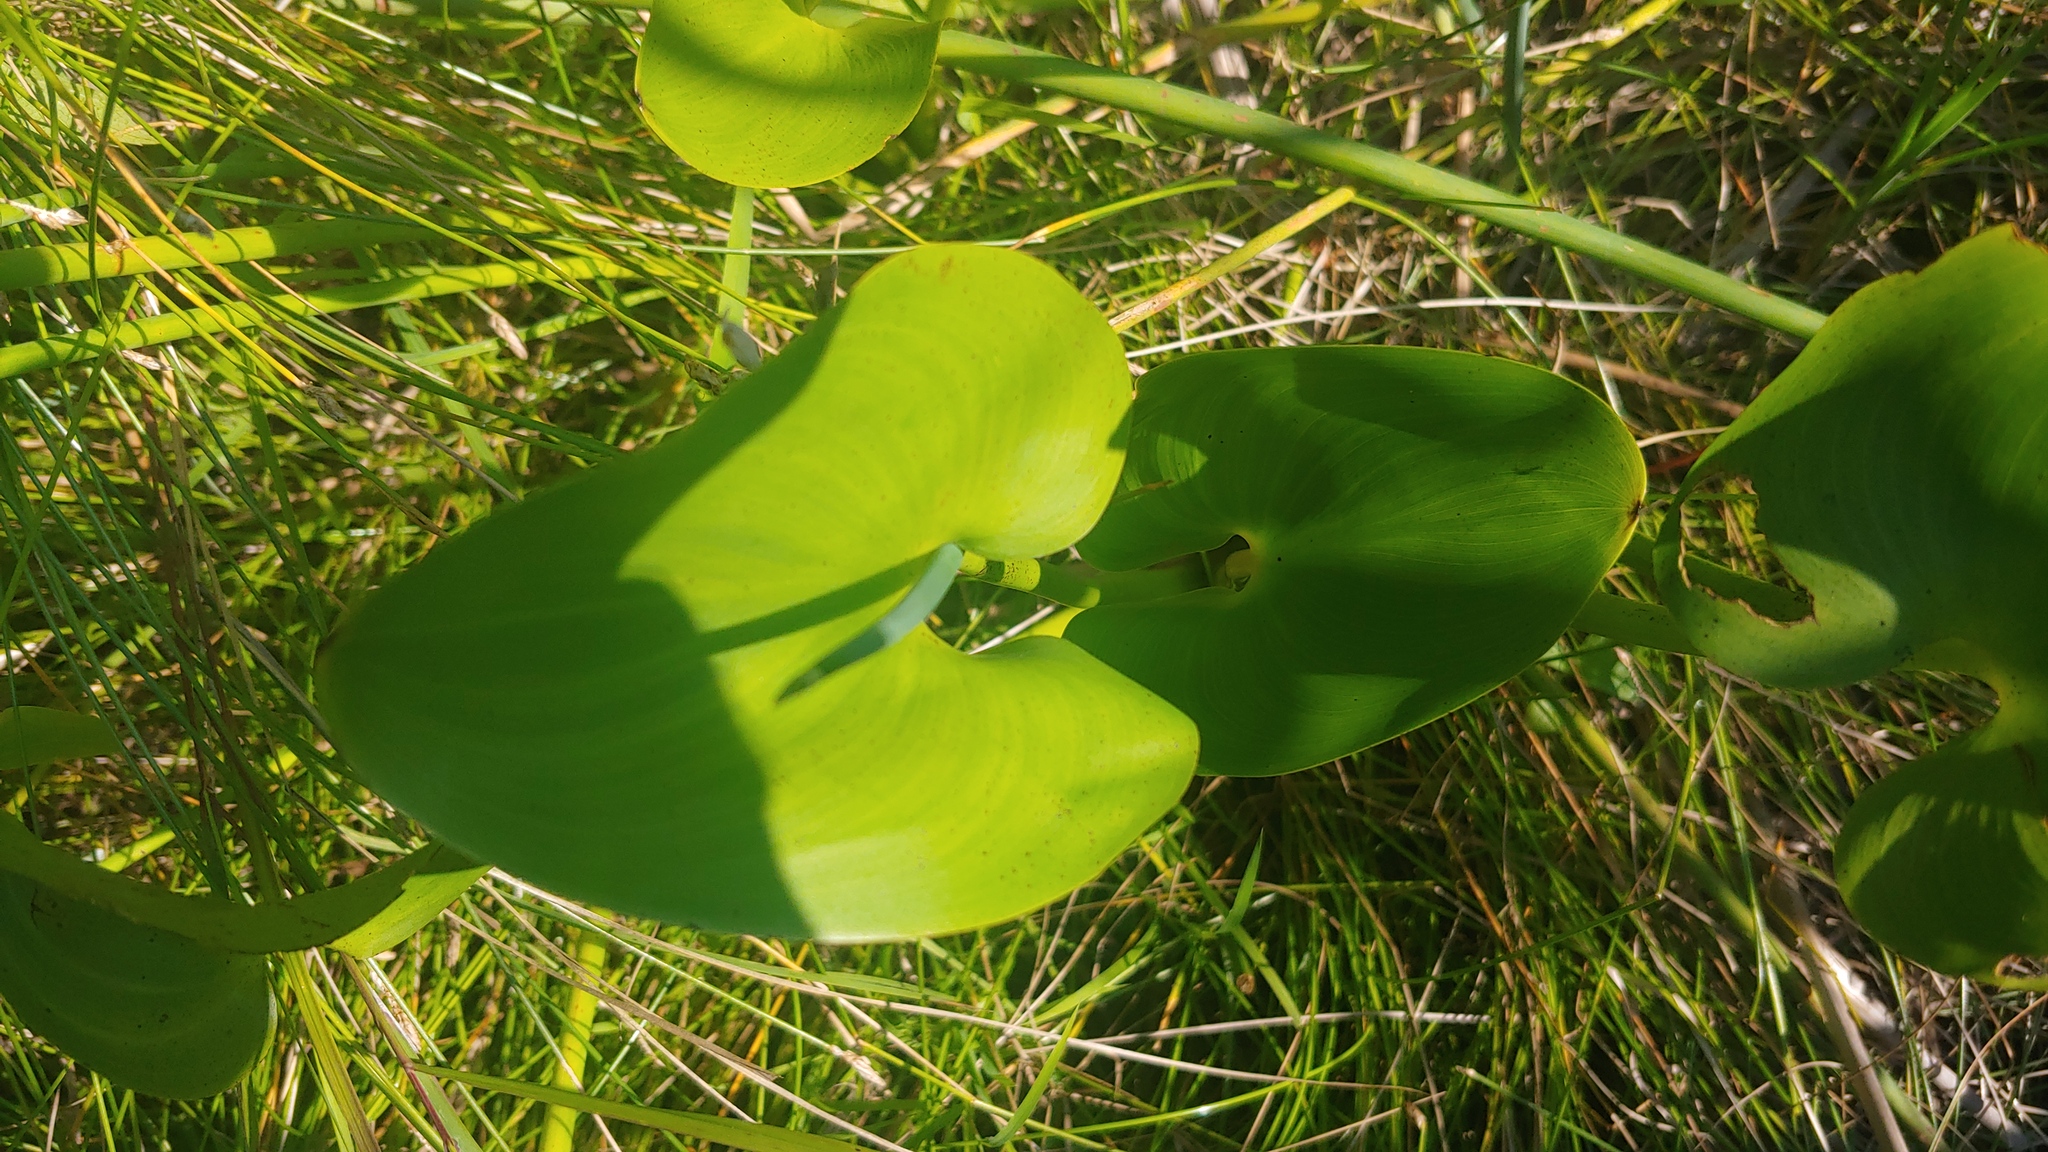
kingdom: Plantae
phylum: Tracheophyta
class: Liliopsida
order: Commelinales
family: Pontederiaceae
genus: Pontederia
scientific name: Pontederia cordata
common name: Pickerelweed
